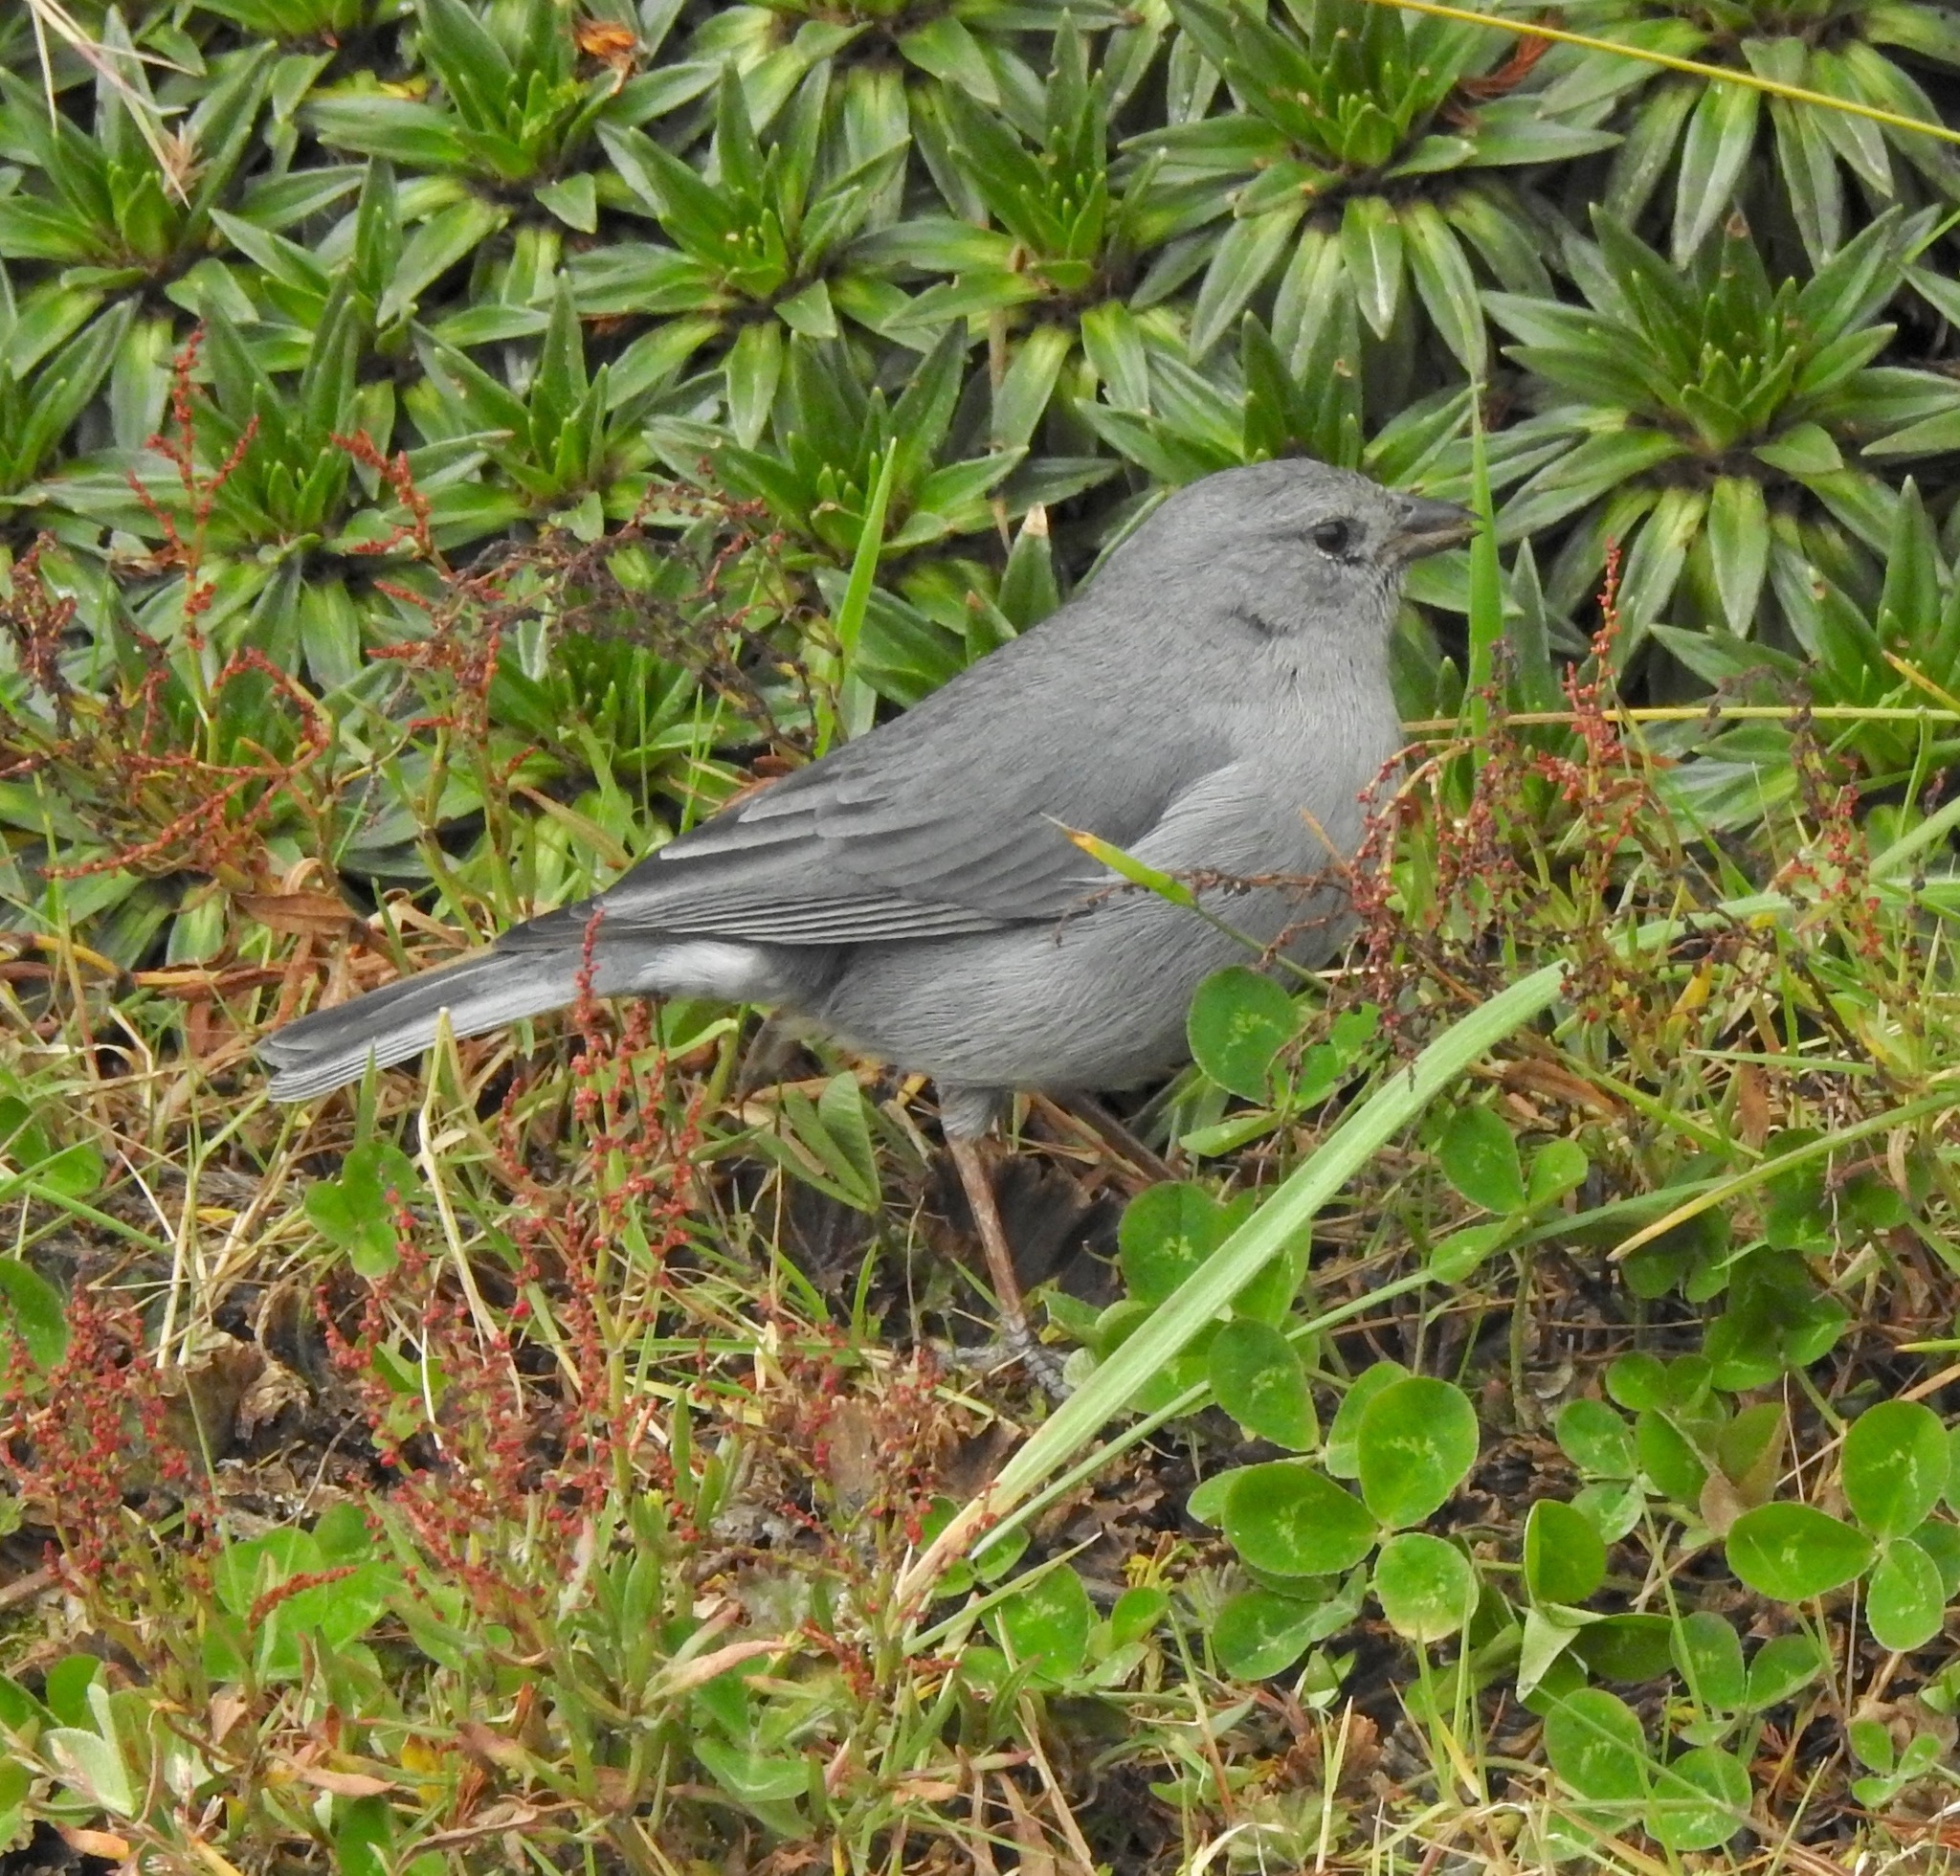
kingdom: Animalia
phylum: Chordata
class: Aves
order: Passeriformes
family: Thraupidae
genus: Geospizopsis
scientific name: Geospizopsis unicolor
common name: Plumbeous sierra-finch
